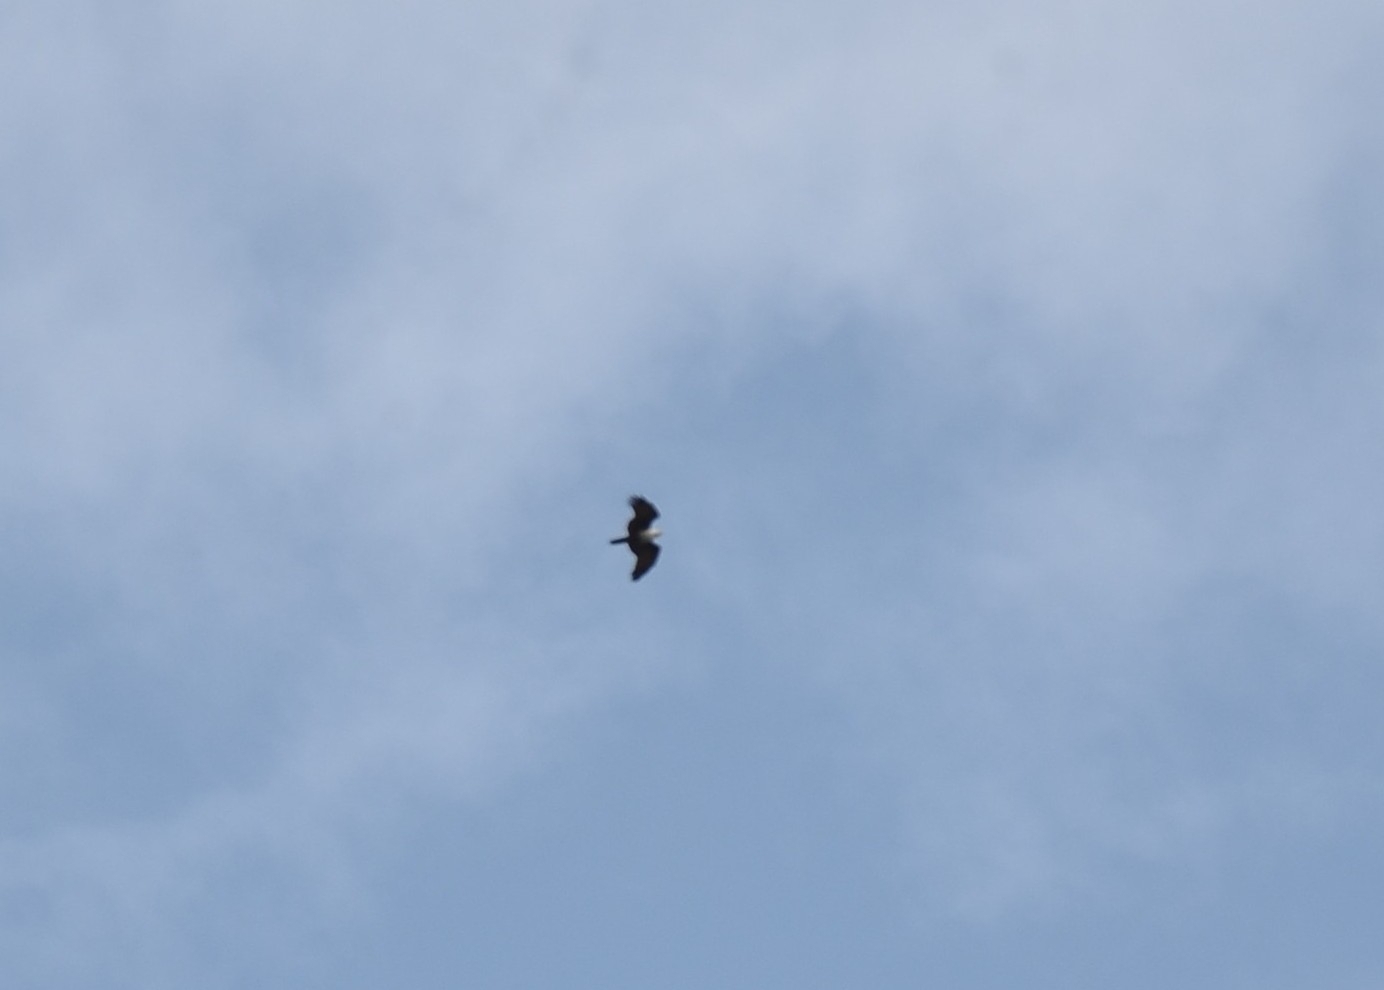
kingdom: Animalia
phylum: Chordata
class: Aves
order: Accipitriformes
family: Accipitridae
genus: Haliastur
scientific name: Haliastur indus
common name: Brahminy kite
